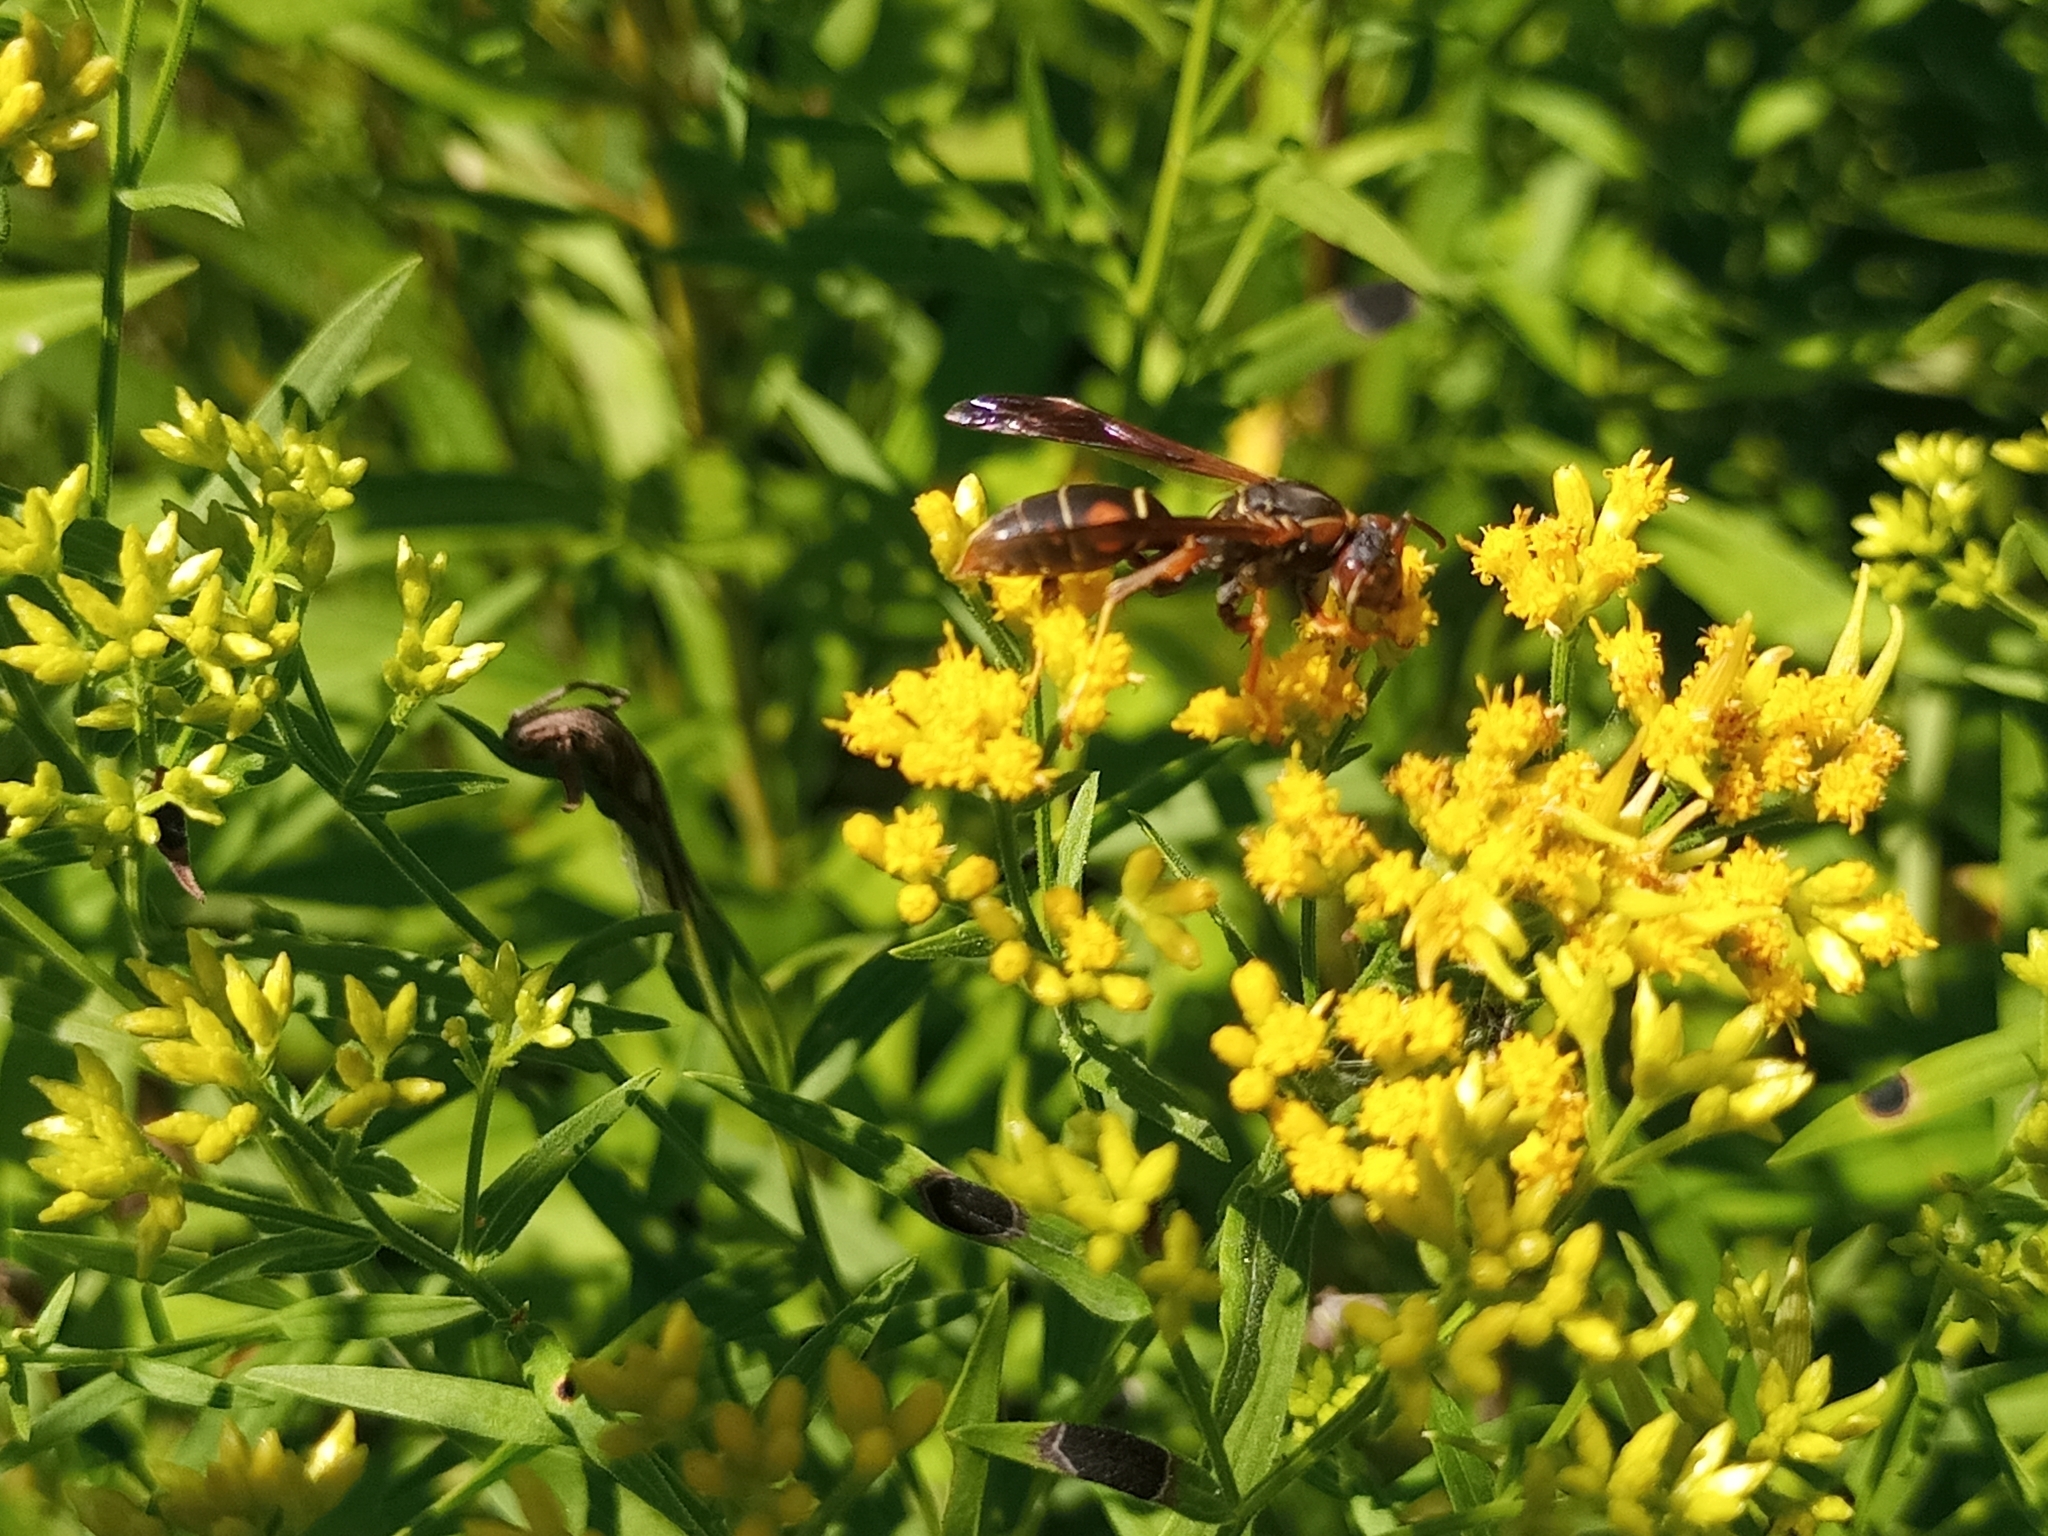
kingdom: Animalia
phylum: Arthropoda
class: Insecta
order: Hymenoptera
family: Eumenidae
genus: Polistes
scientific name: Polistes fuscatus
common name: Dark paper wasp
